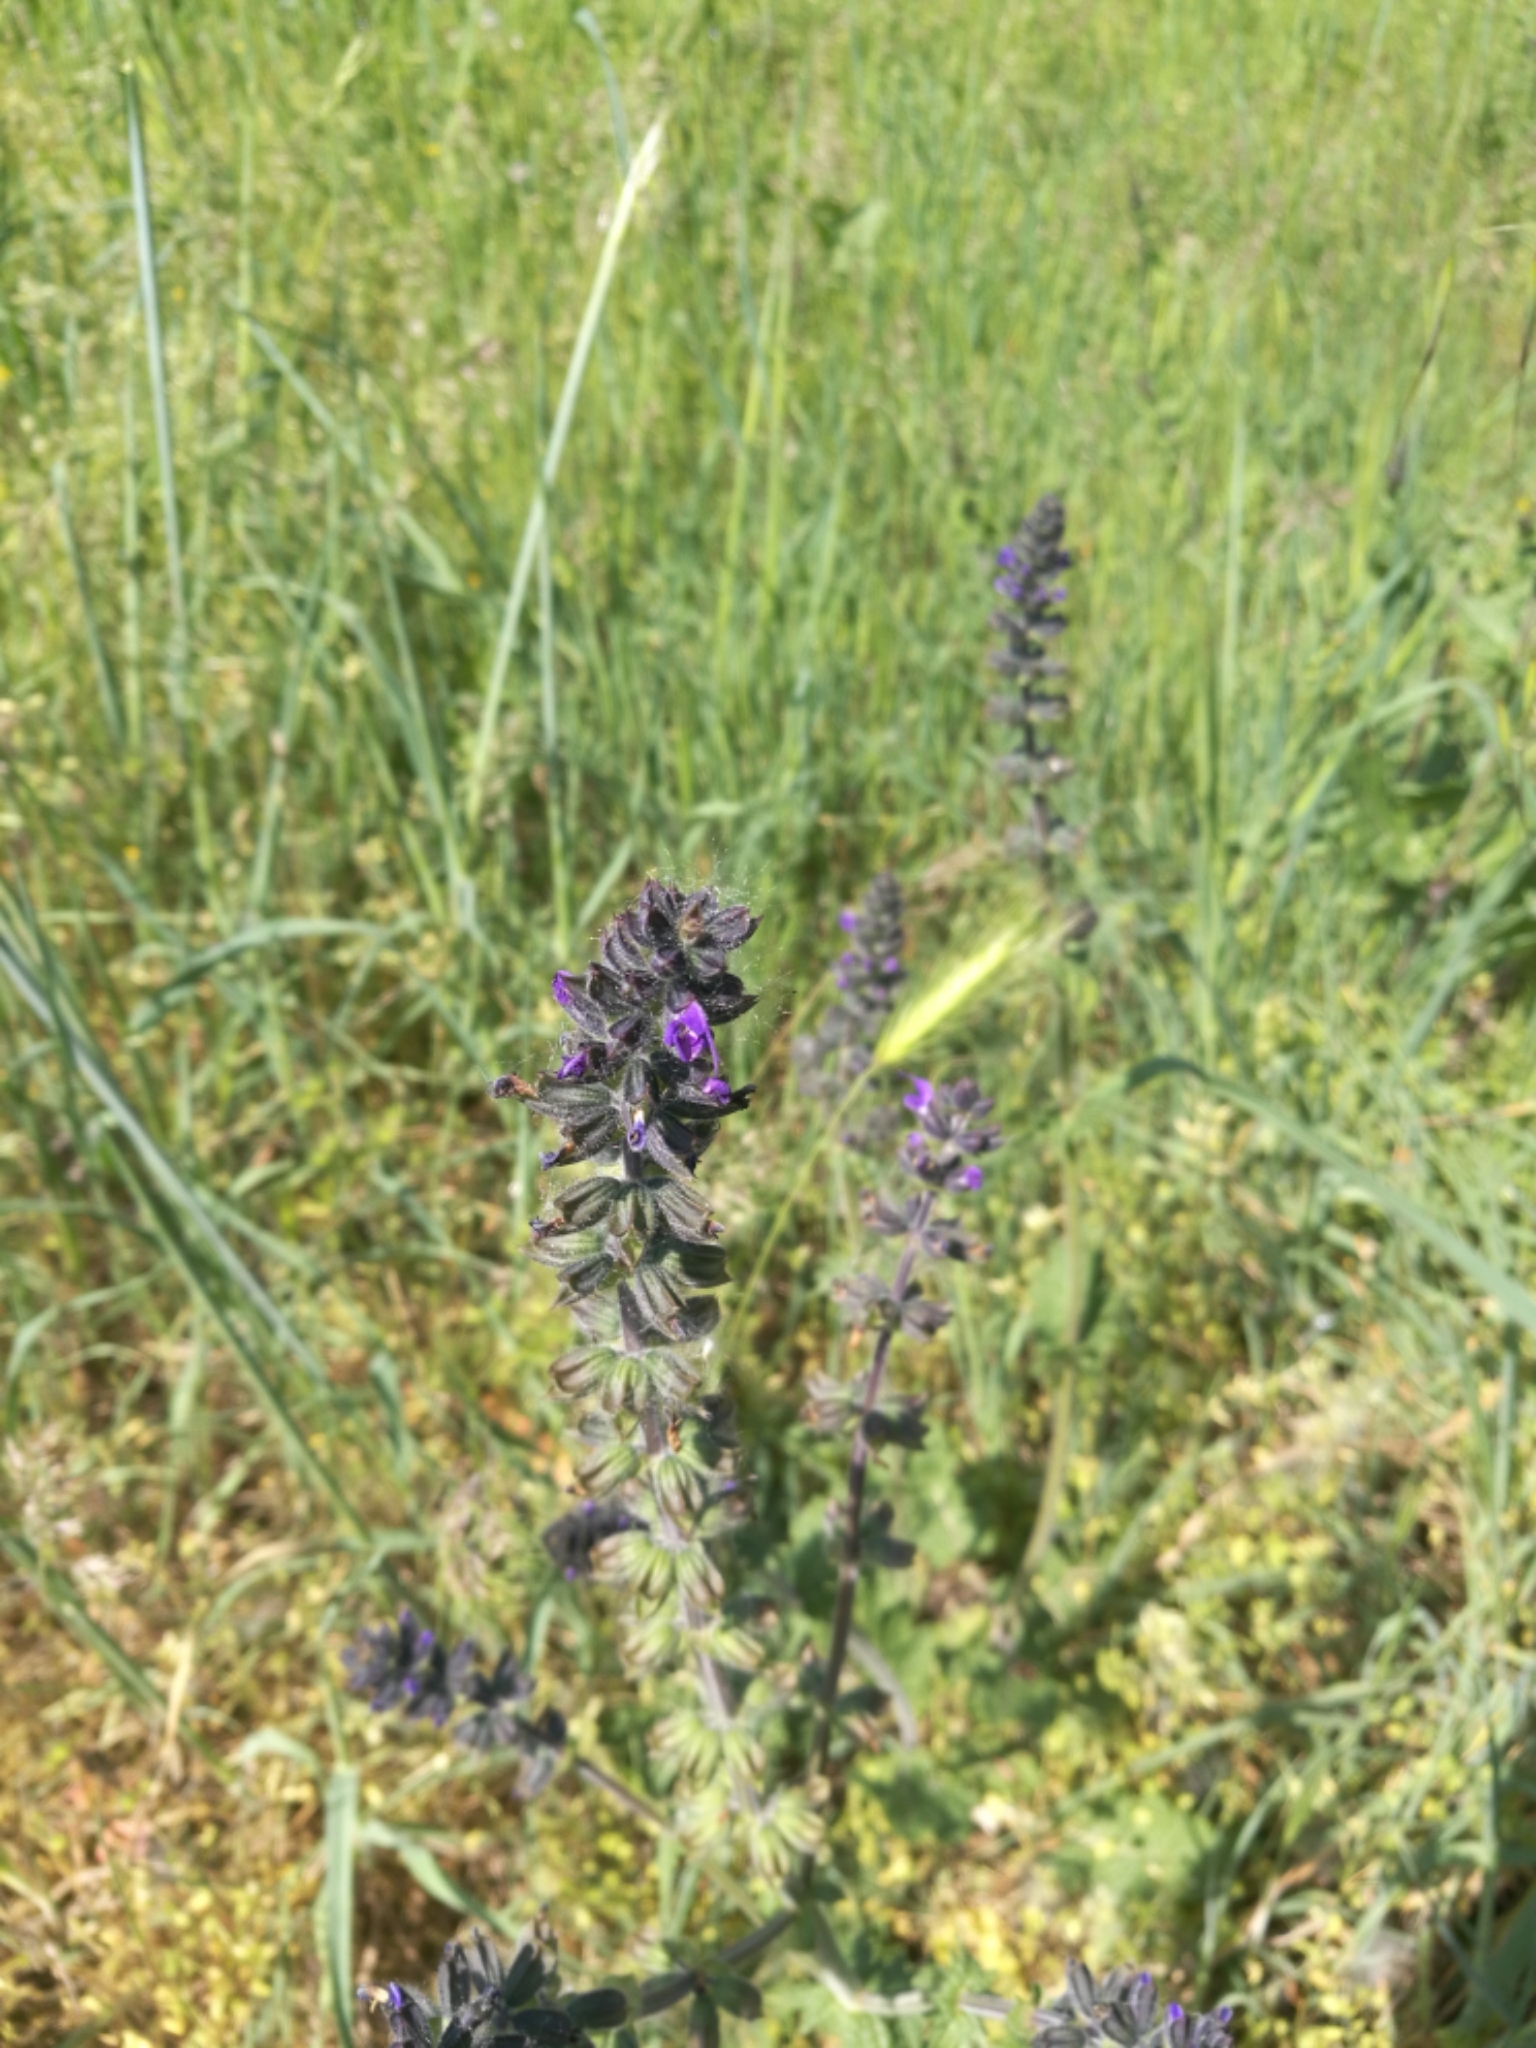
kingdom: Plantae
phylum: Tracheophyta
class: Magnoliopsida
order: Lamiales
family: Lamiaceae
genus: Salvia
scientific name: Salvia verbenaca
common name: Wild clary
